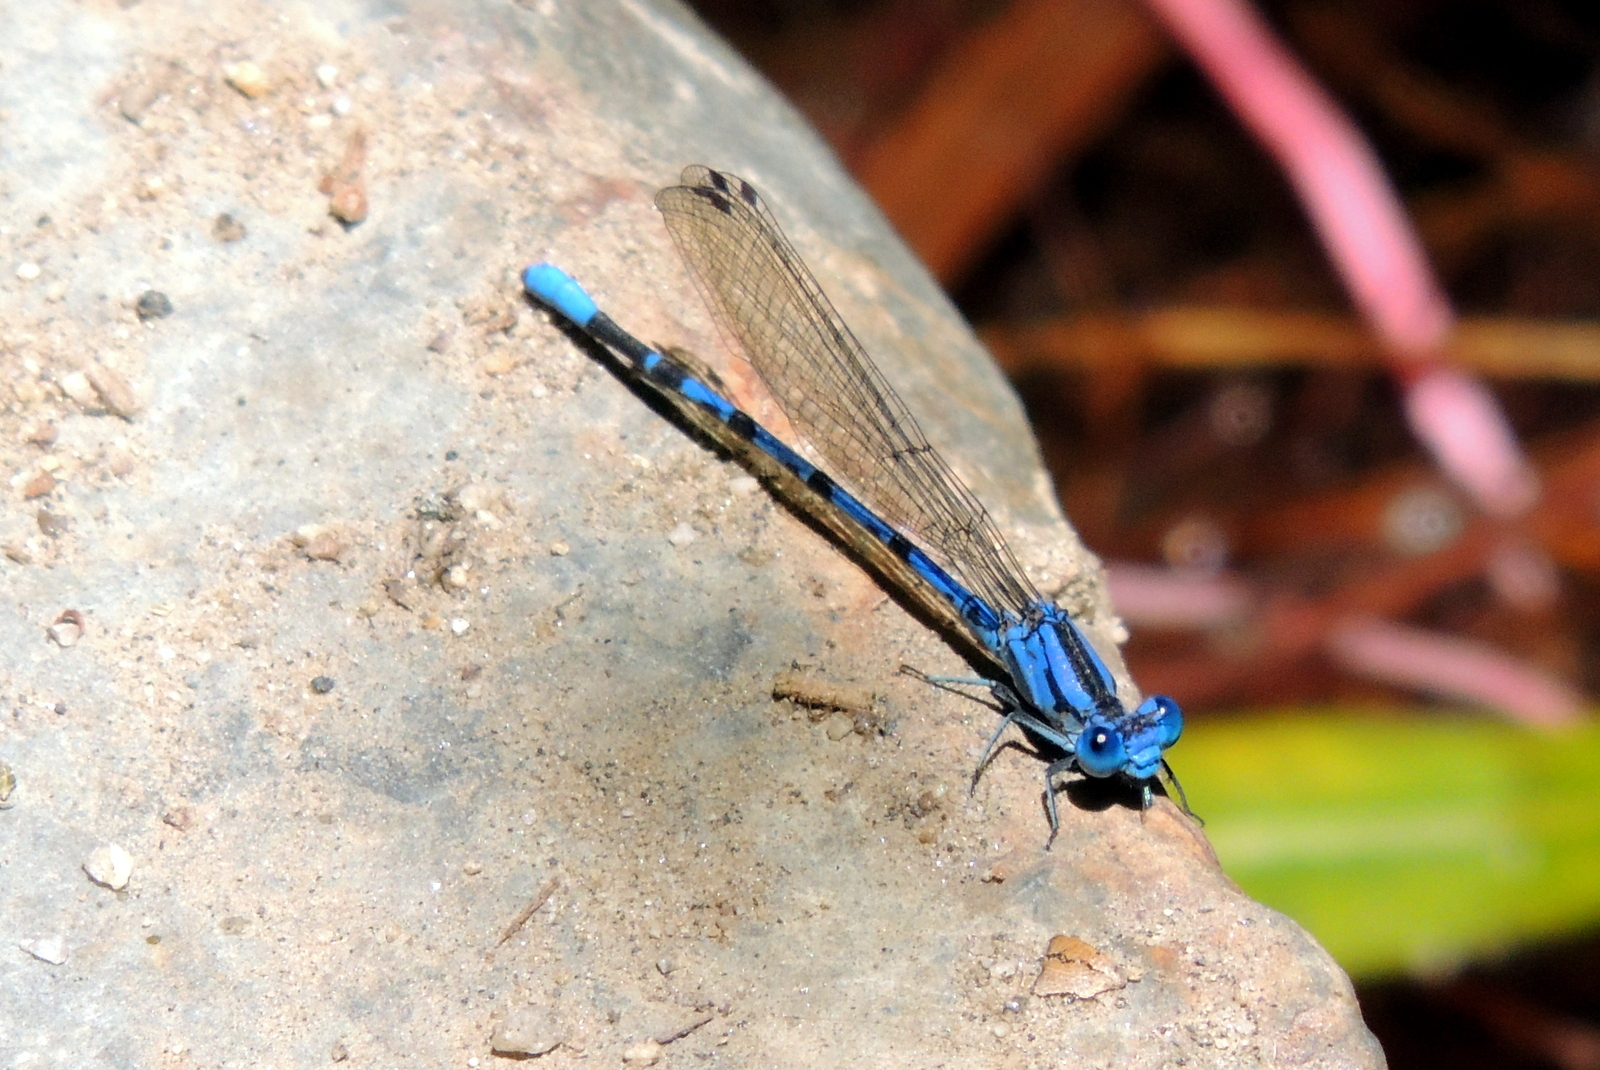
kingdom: Animalia
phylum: Arthropoda
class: Insecta
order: Odonata
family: Coenagrionidae
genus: Argia
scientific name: Argia vivida
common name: Vivid dancer
